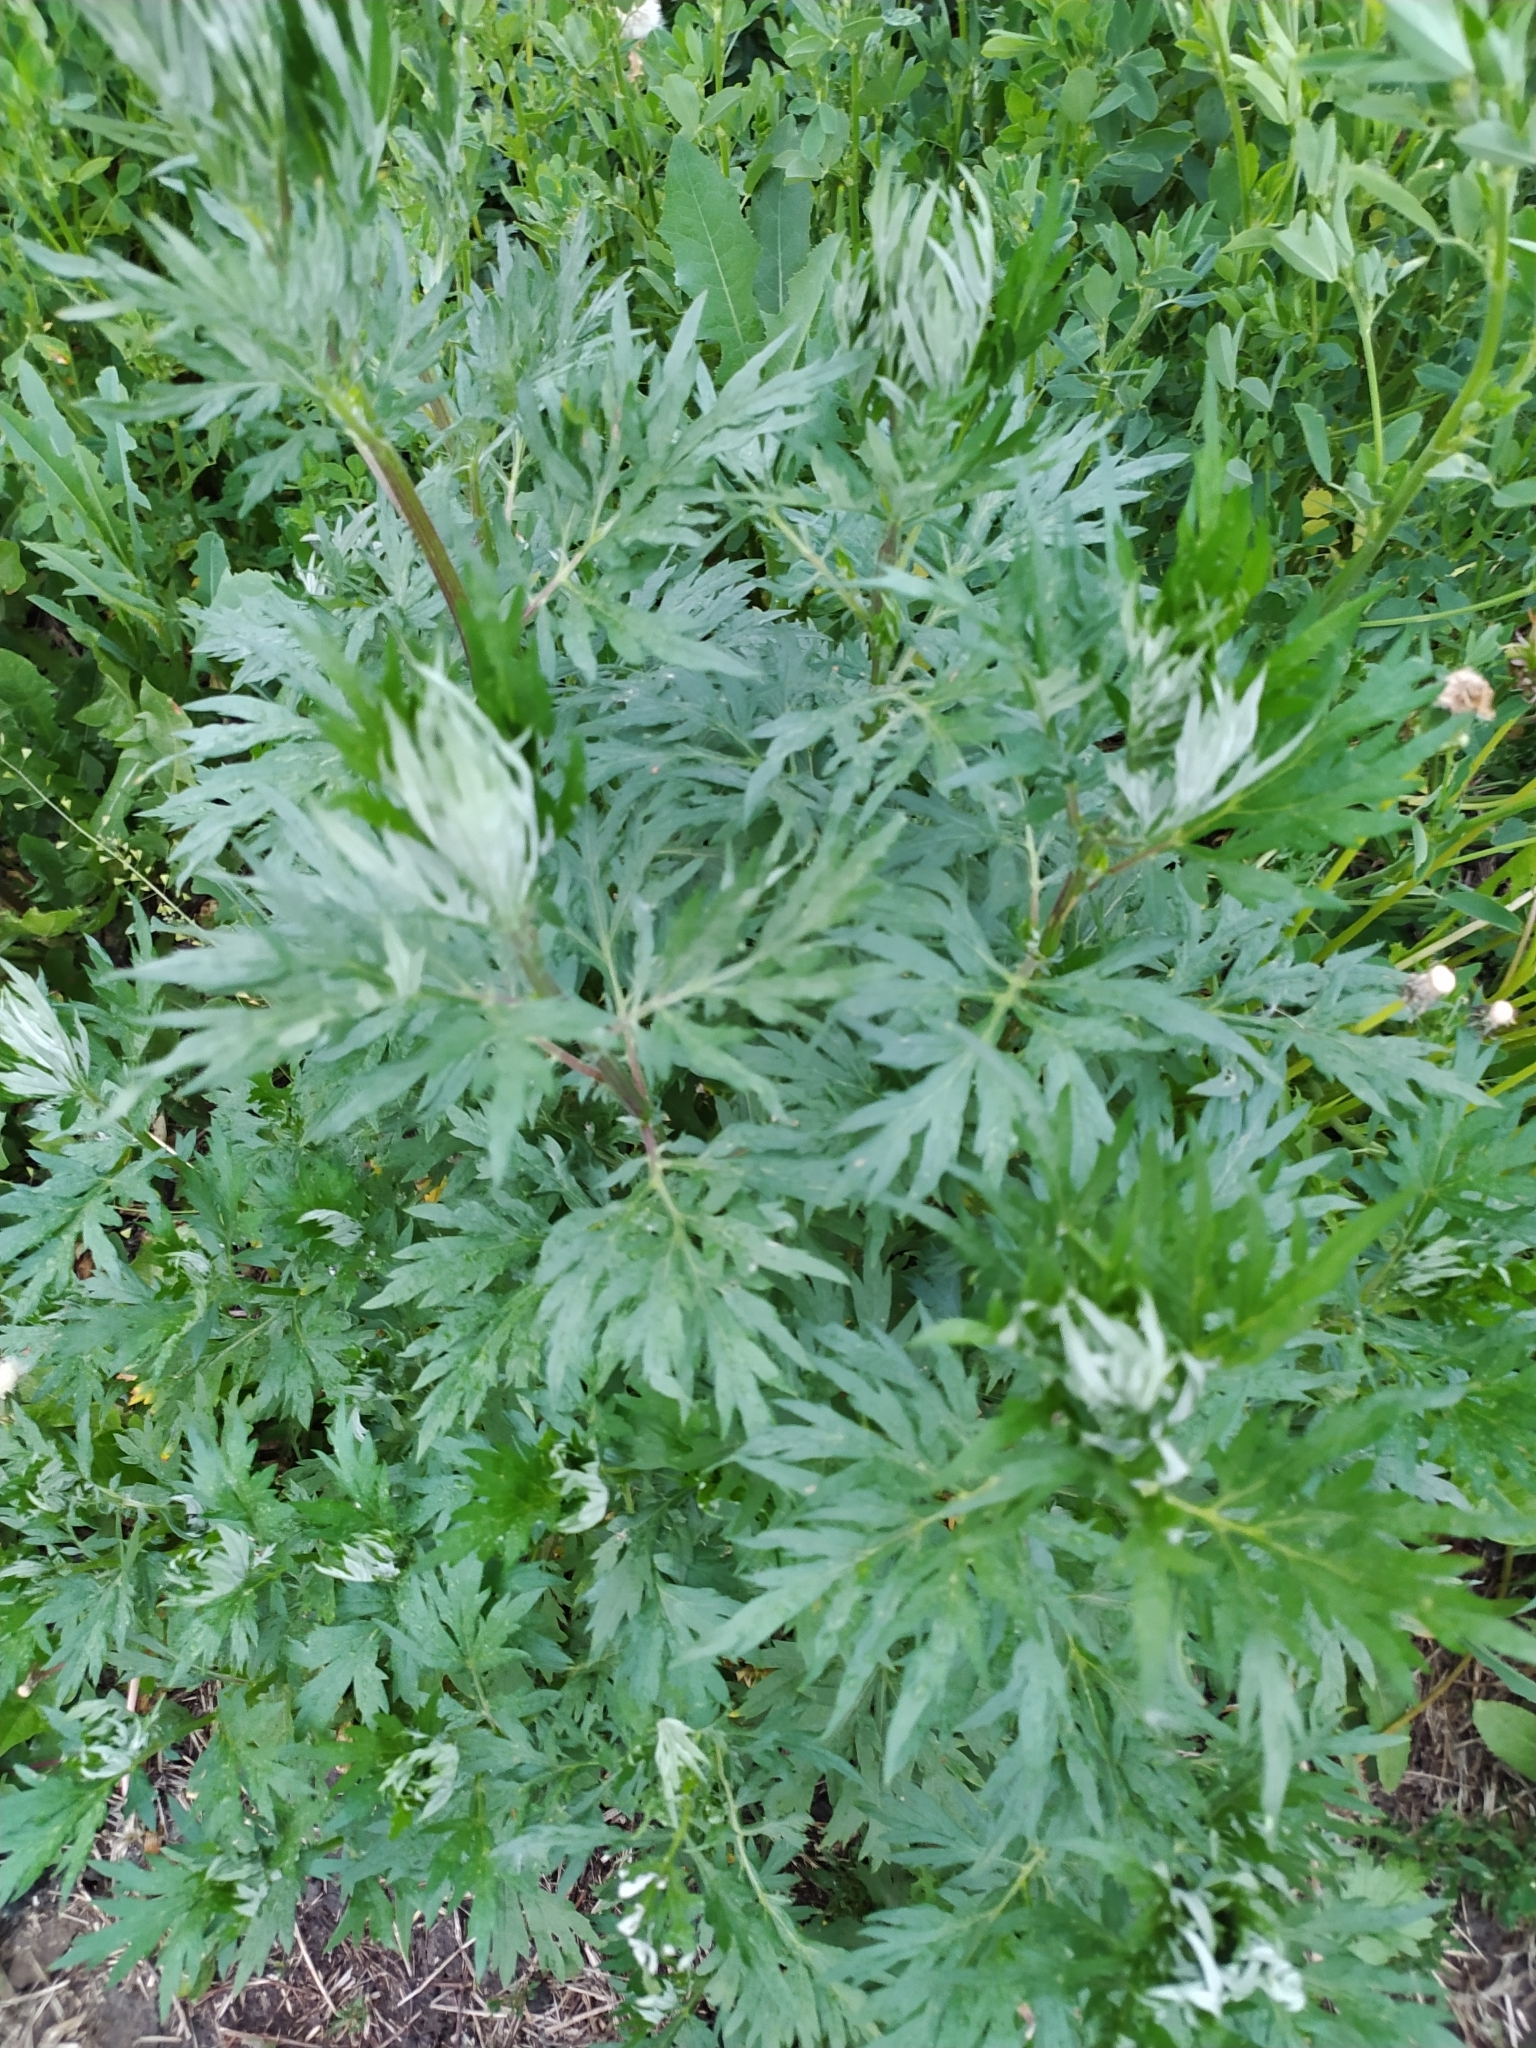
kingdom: Plantae
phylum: Tracheophyta
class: Magnoliopsida
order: Asterales
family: Asteraceae
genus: Artemisia
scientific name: Artemisia vulgaris
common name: Mugwort
